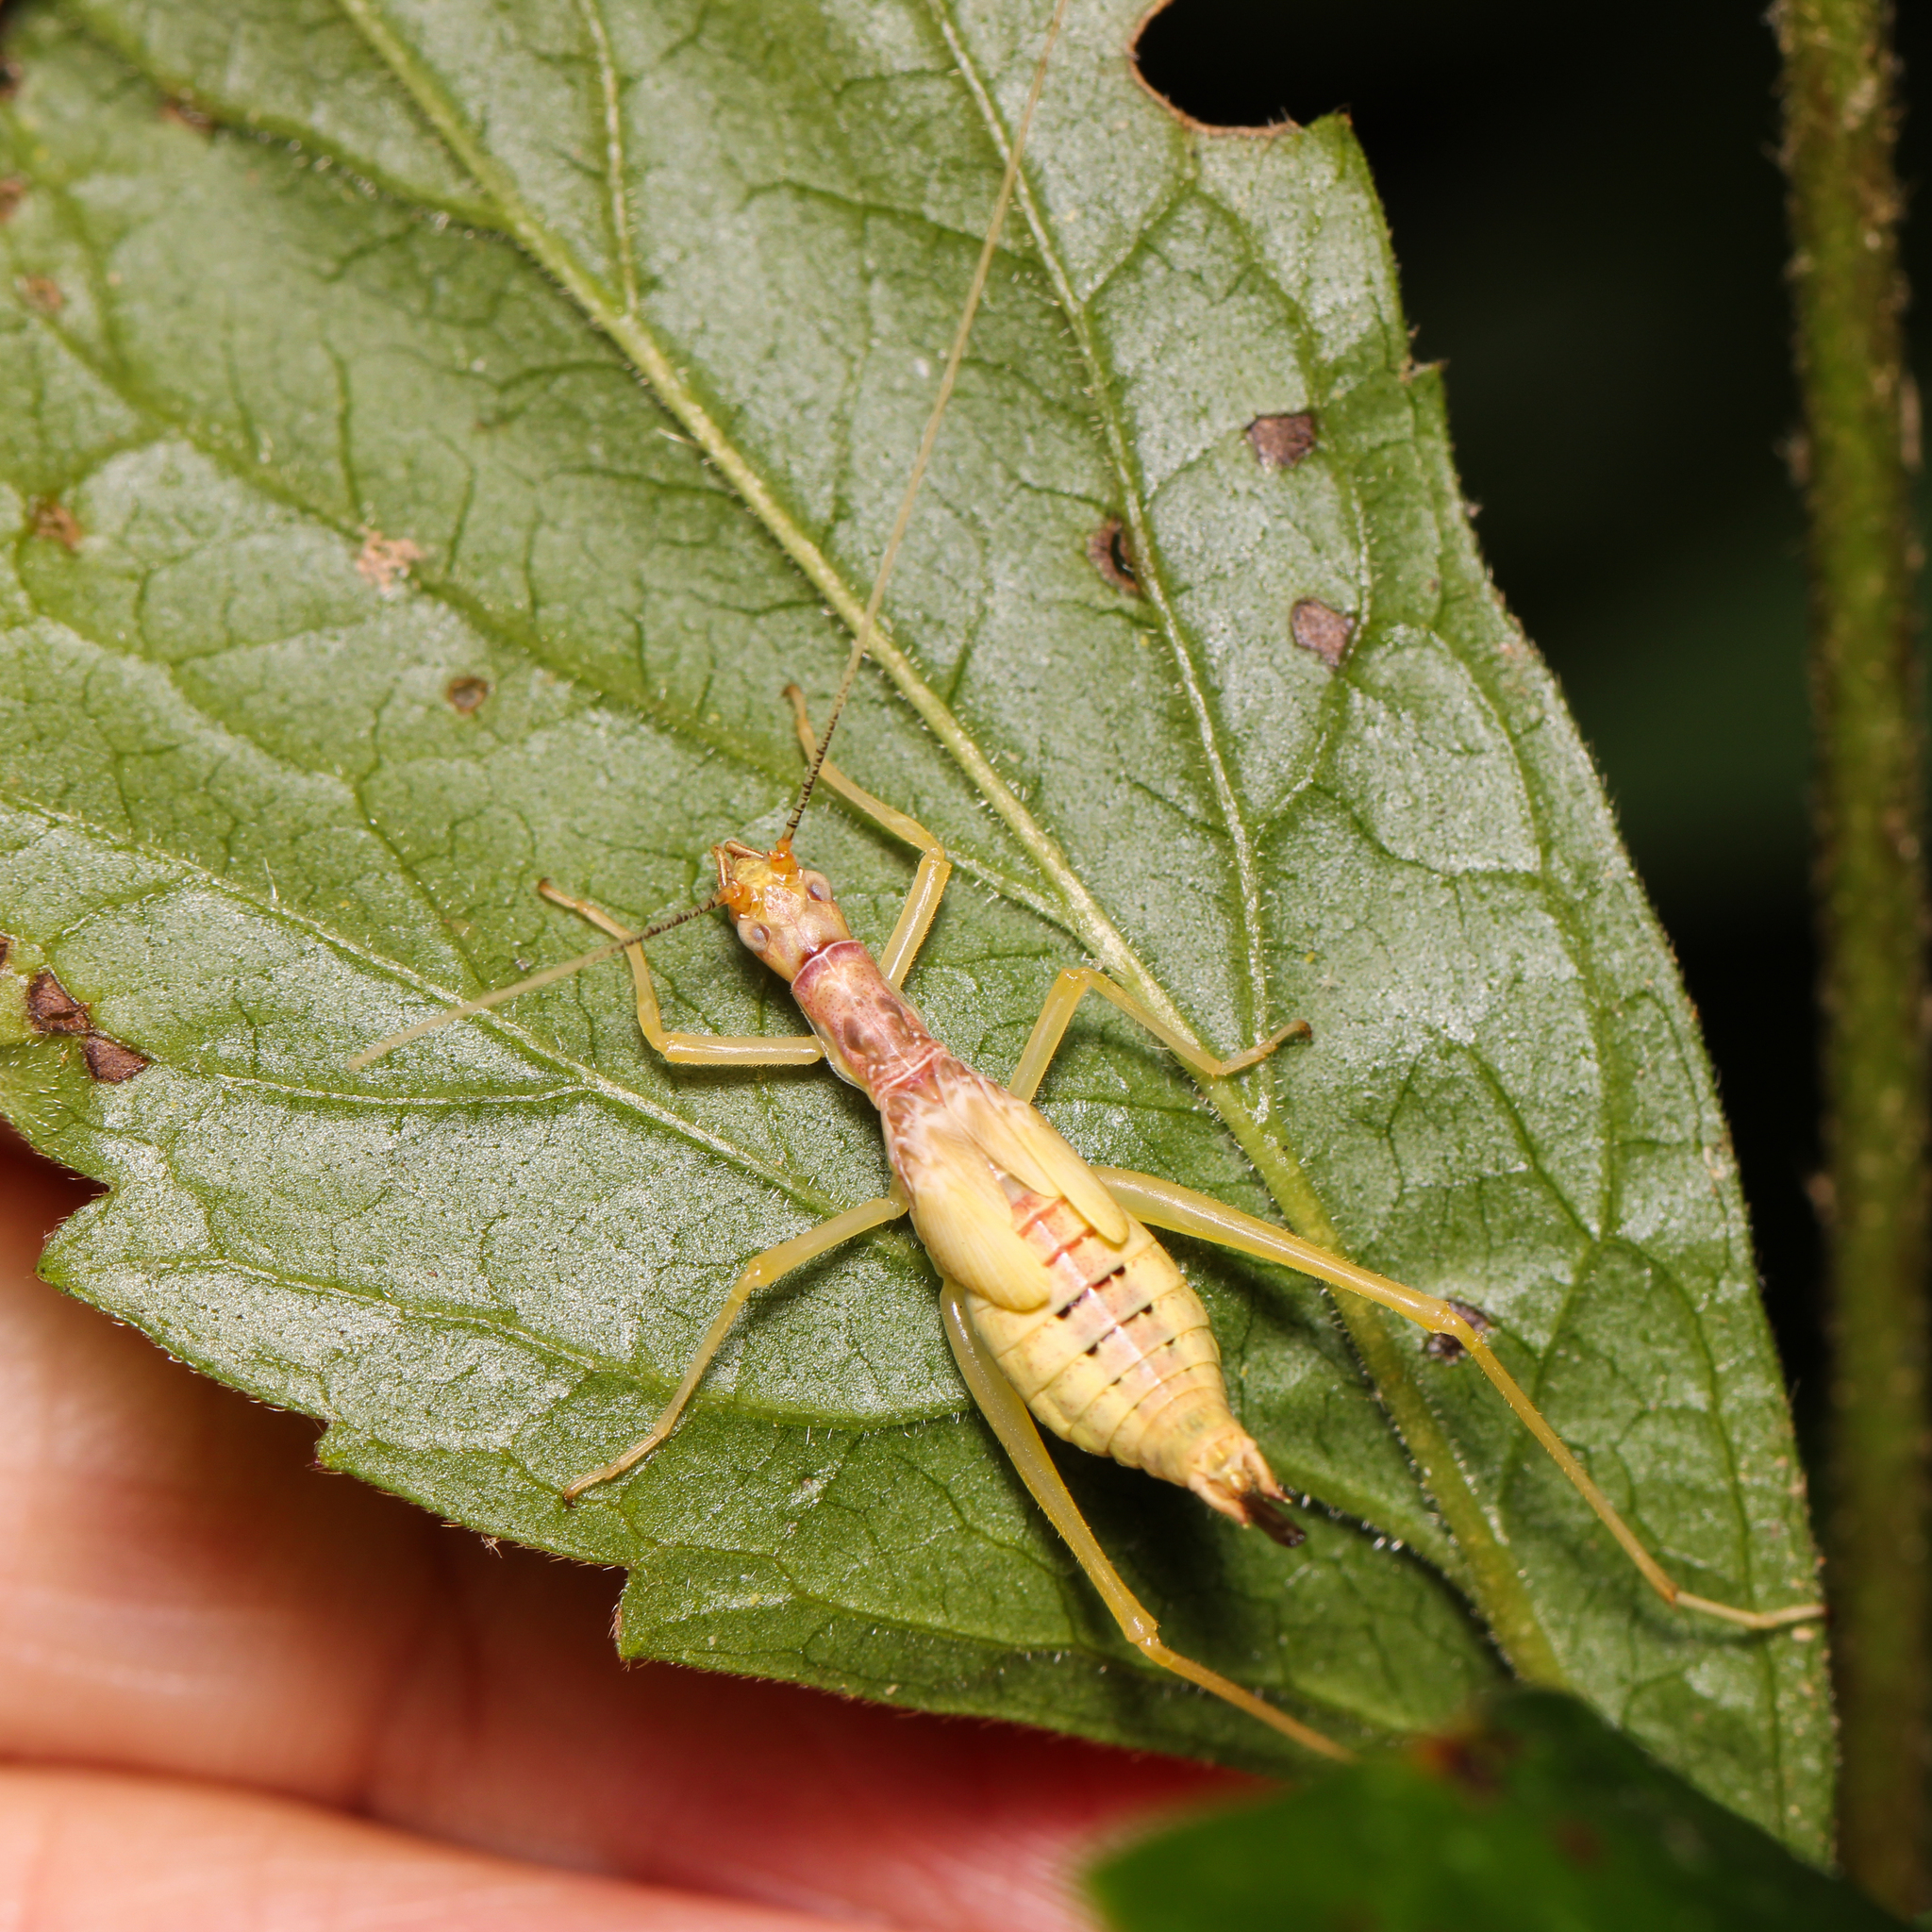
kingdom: Animalia
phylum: Arthropoda
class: Insecta
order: Orthoptera
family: Gryllidae
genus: Neoxabea
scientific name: Neoxabea bipunctata
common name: Two-spotted tree cricket
